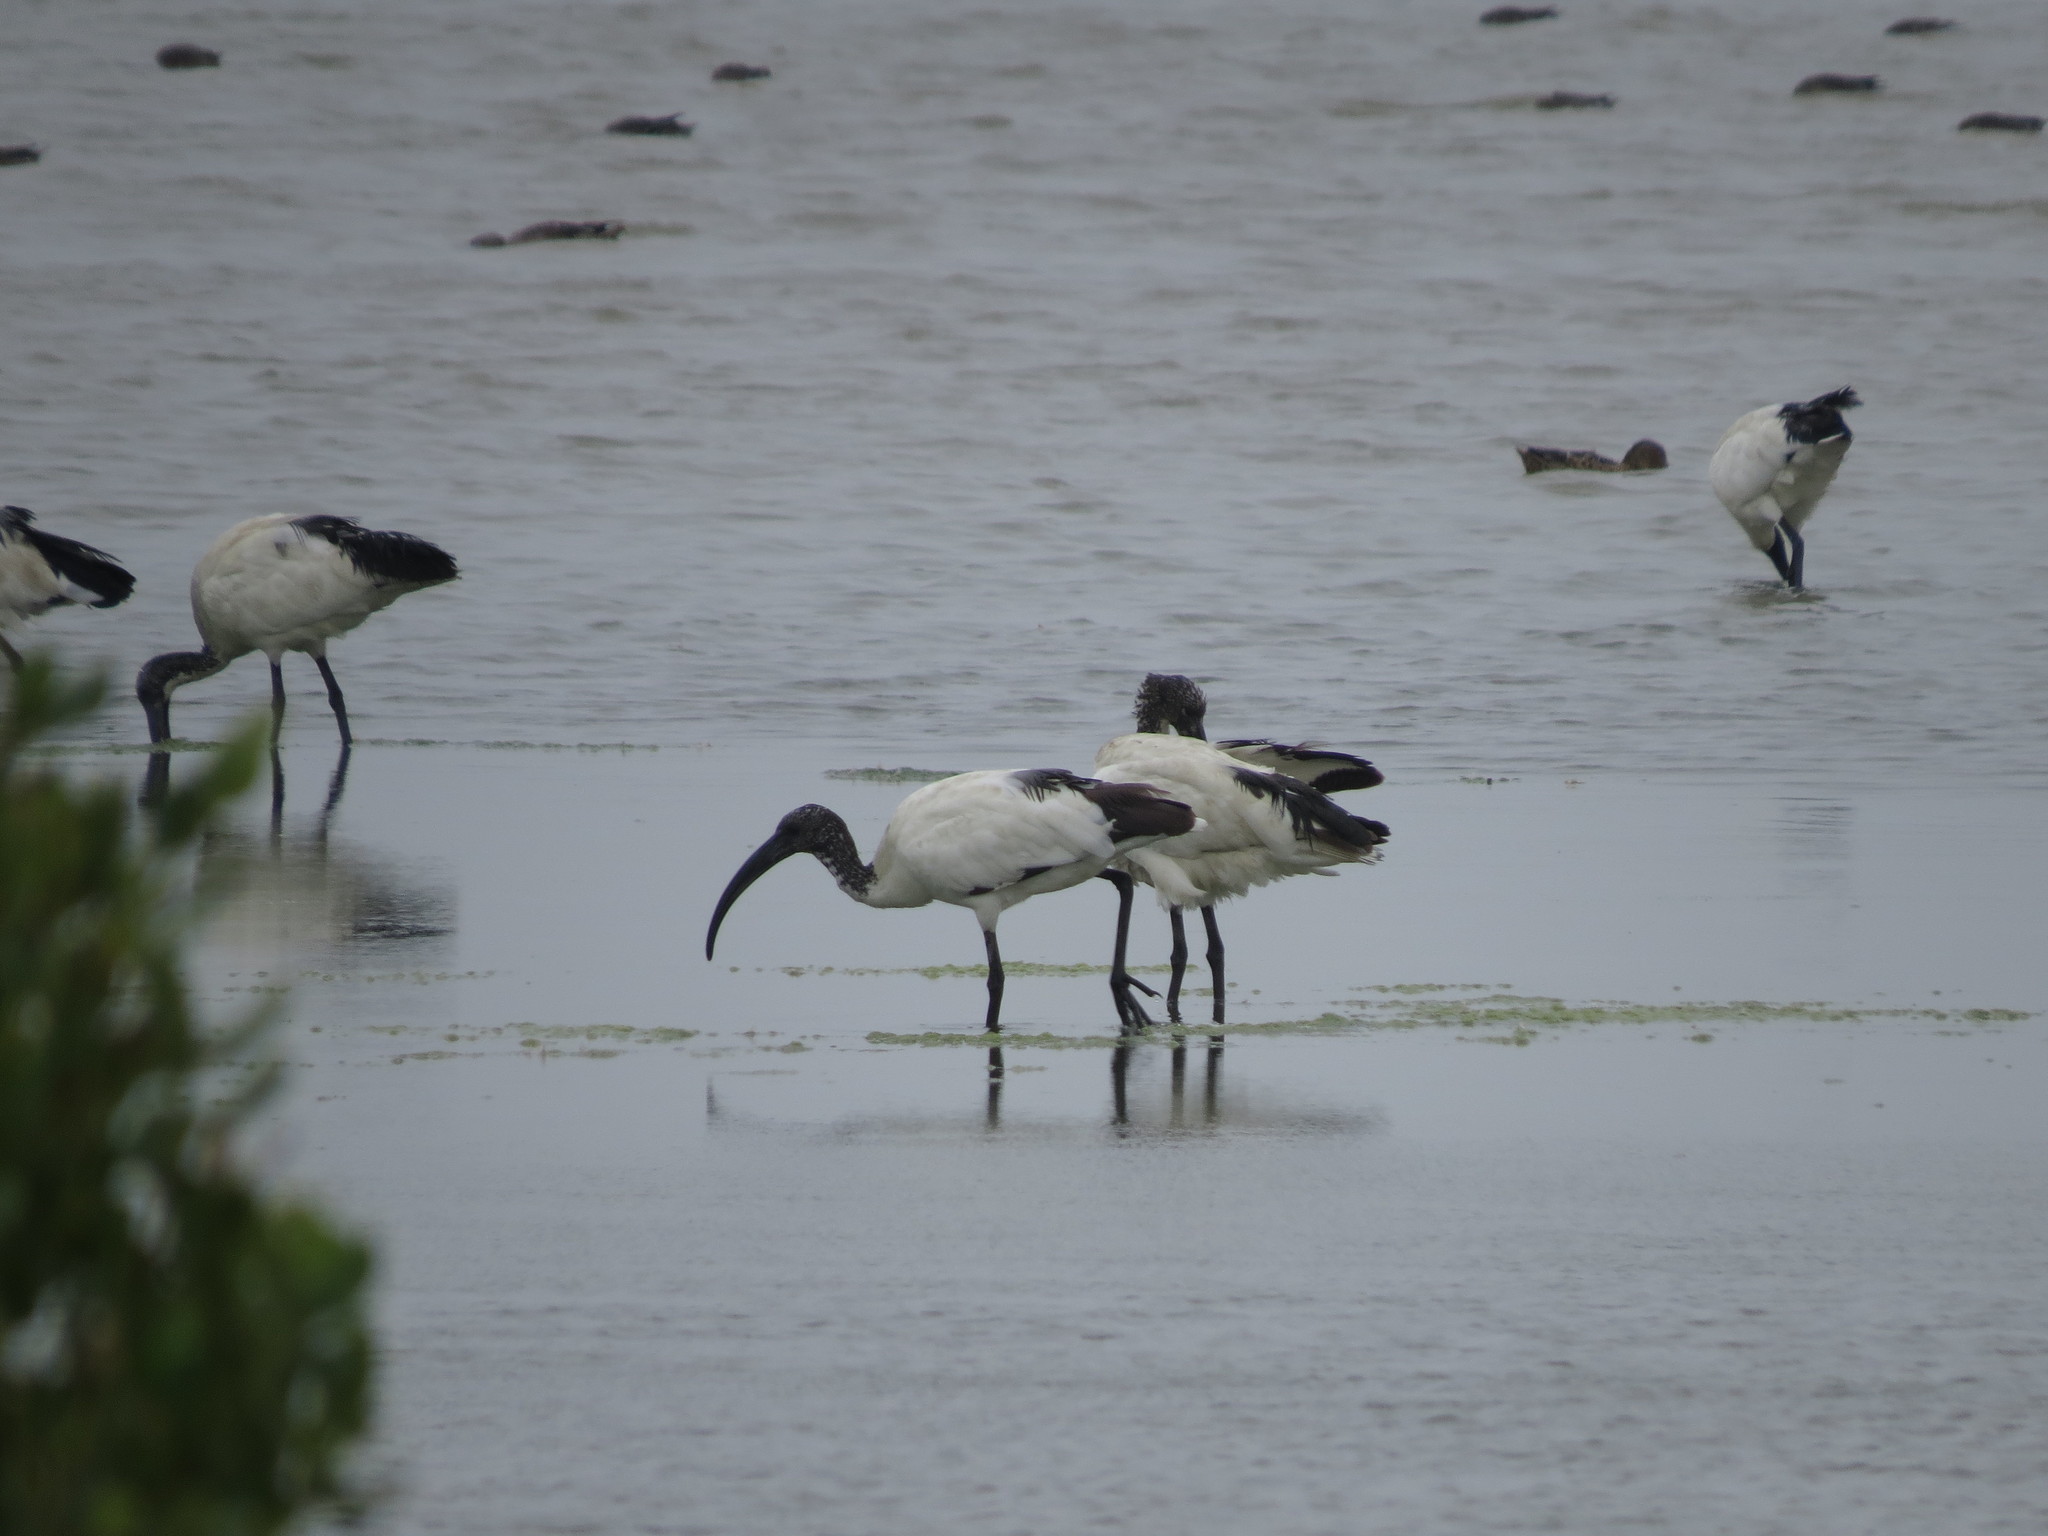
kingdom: Animalia
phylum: Chordata
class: Aves
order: Pelecaniformes
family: Threskiornithidae
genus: Threskiornis
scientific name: Threskiornis aethiopicus
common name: Sacred ibis
